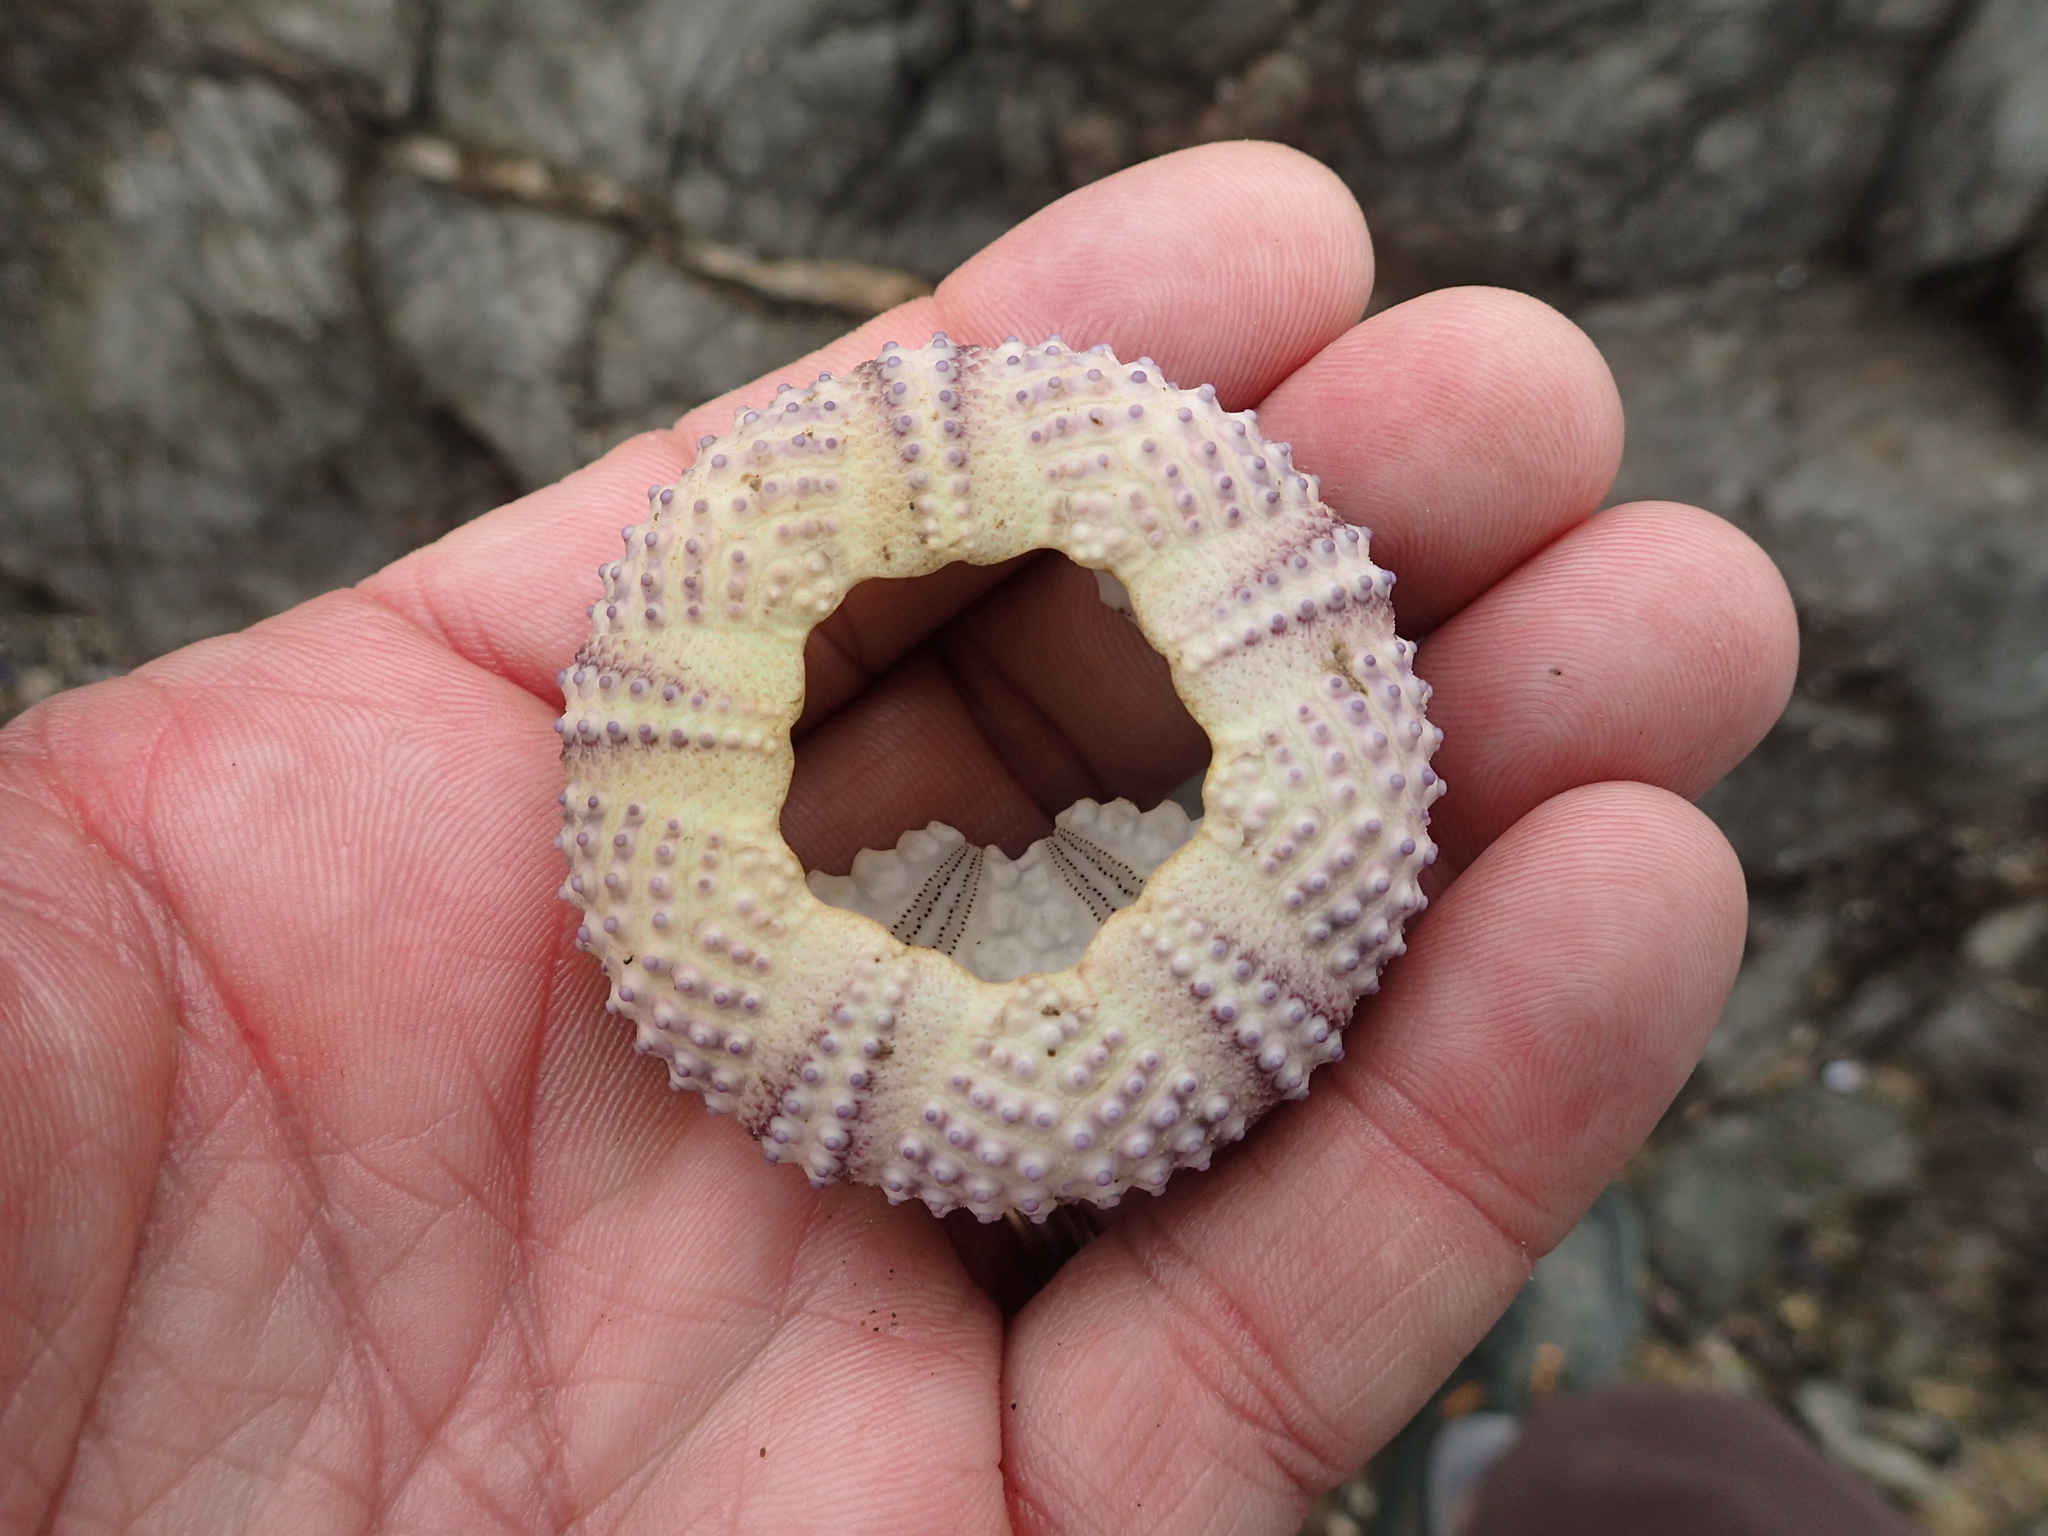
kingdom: Animalia
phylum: Echinodermata
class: Echinoidea
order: Arbacioida
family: Arbaciidae
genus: Tetrapygus
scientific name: Tetrapygus niger
